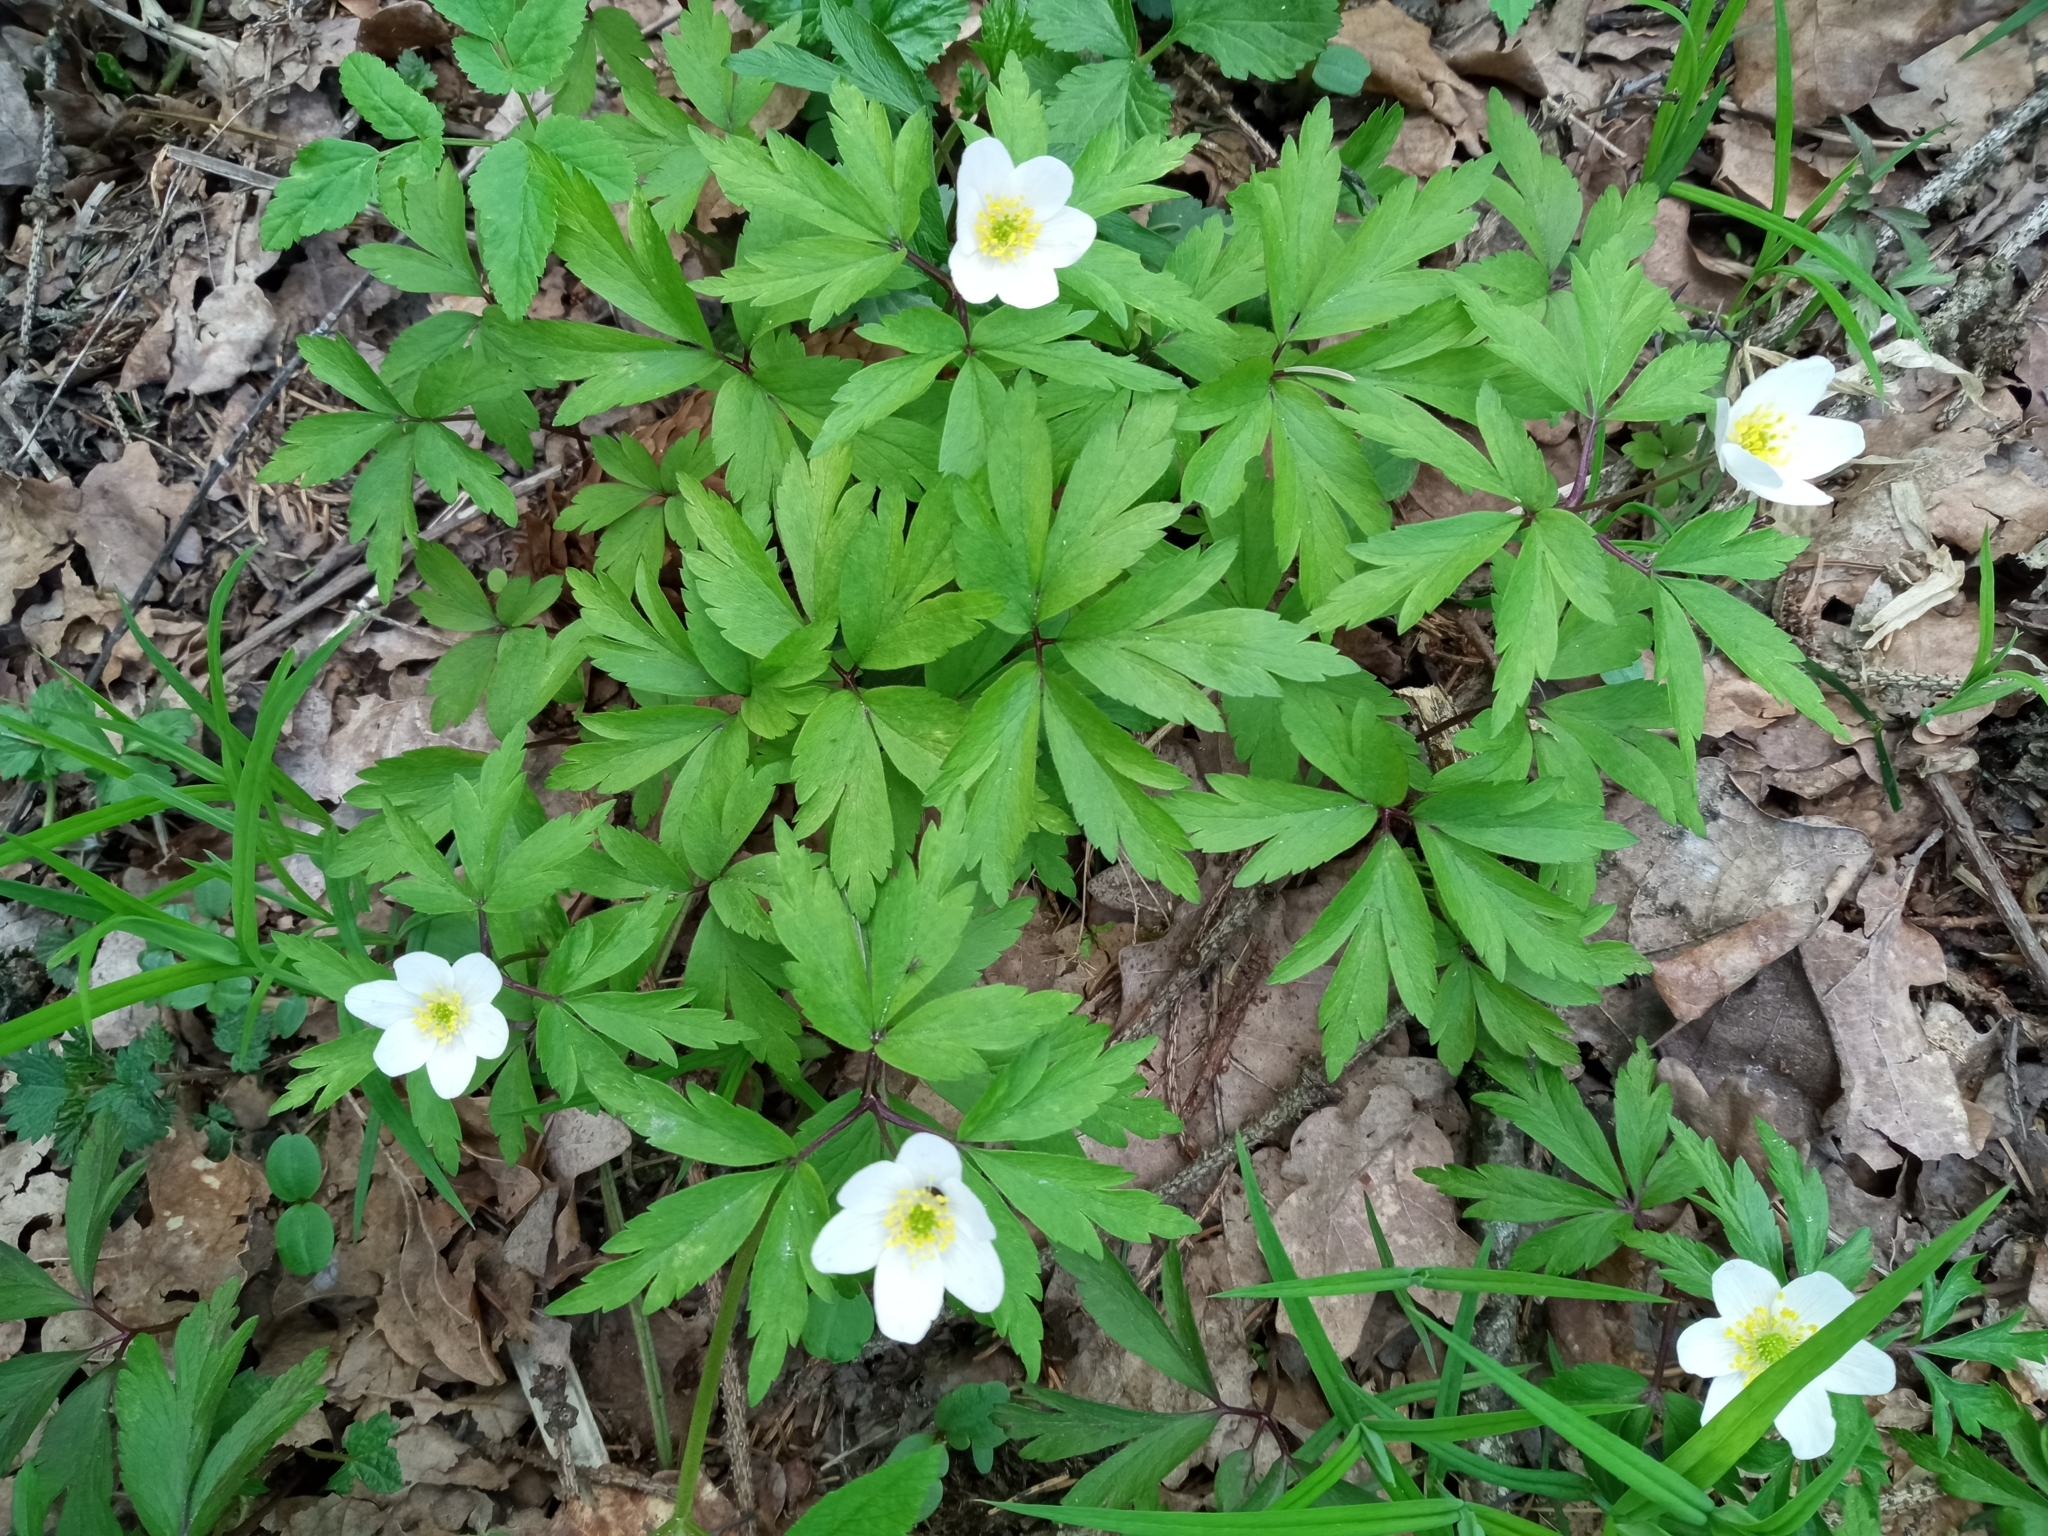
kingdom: Plantae
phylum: Tracheophyta
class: Magnoliopsida
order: Ranunculales
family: Ranunculaceae
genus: Anemone
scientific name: Anemone nemorosa
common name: Wood anemone
